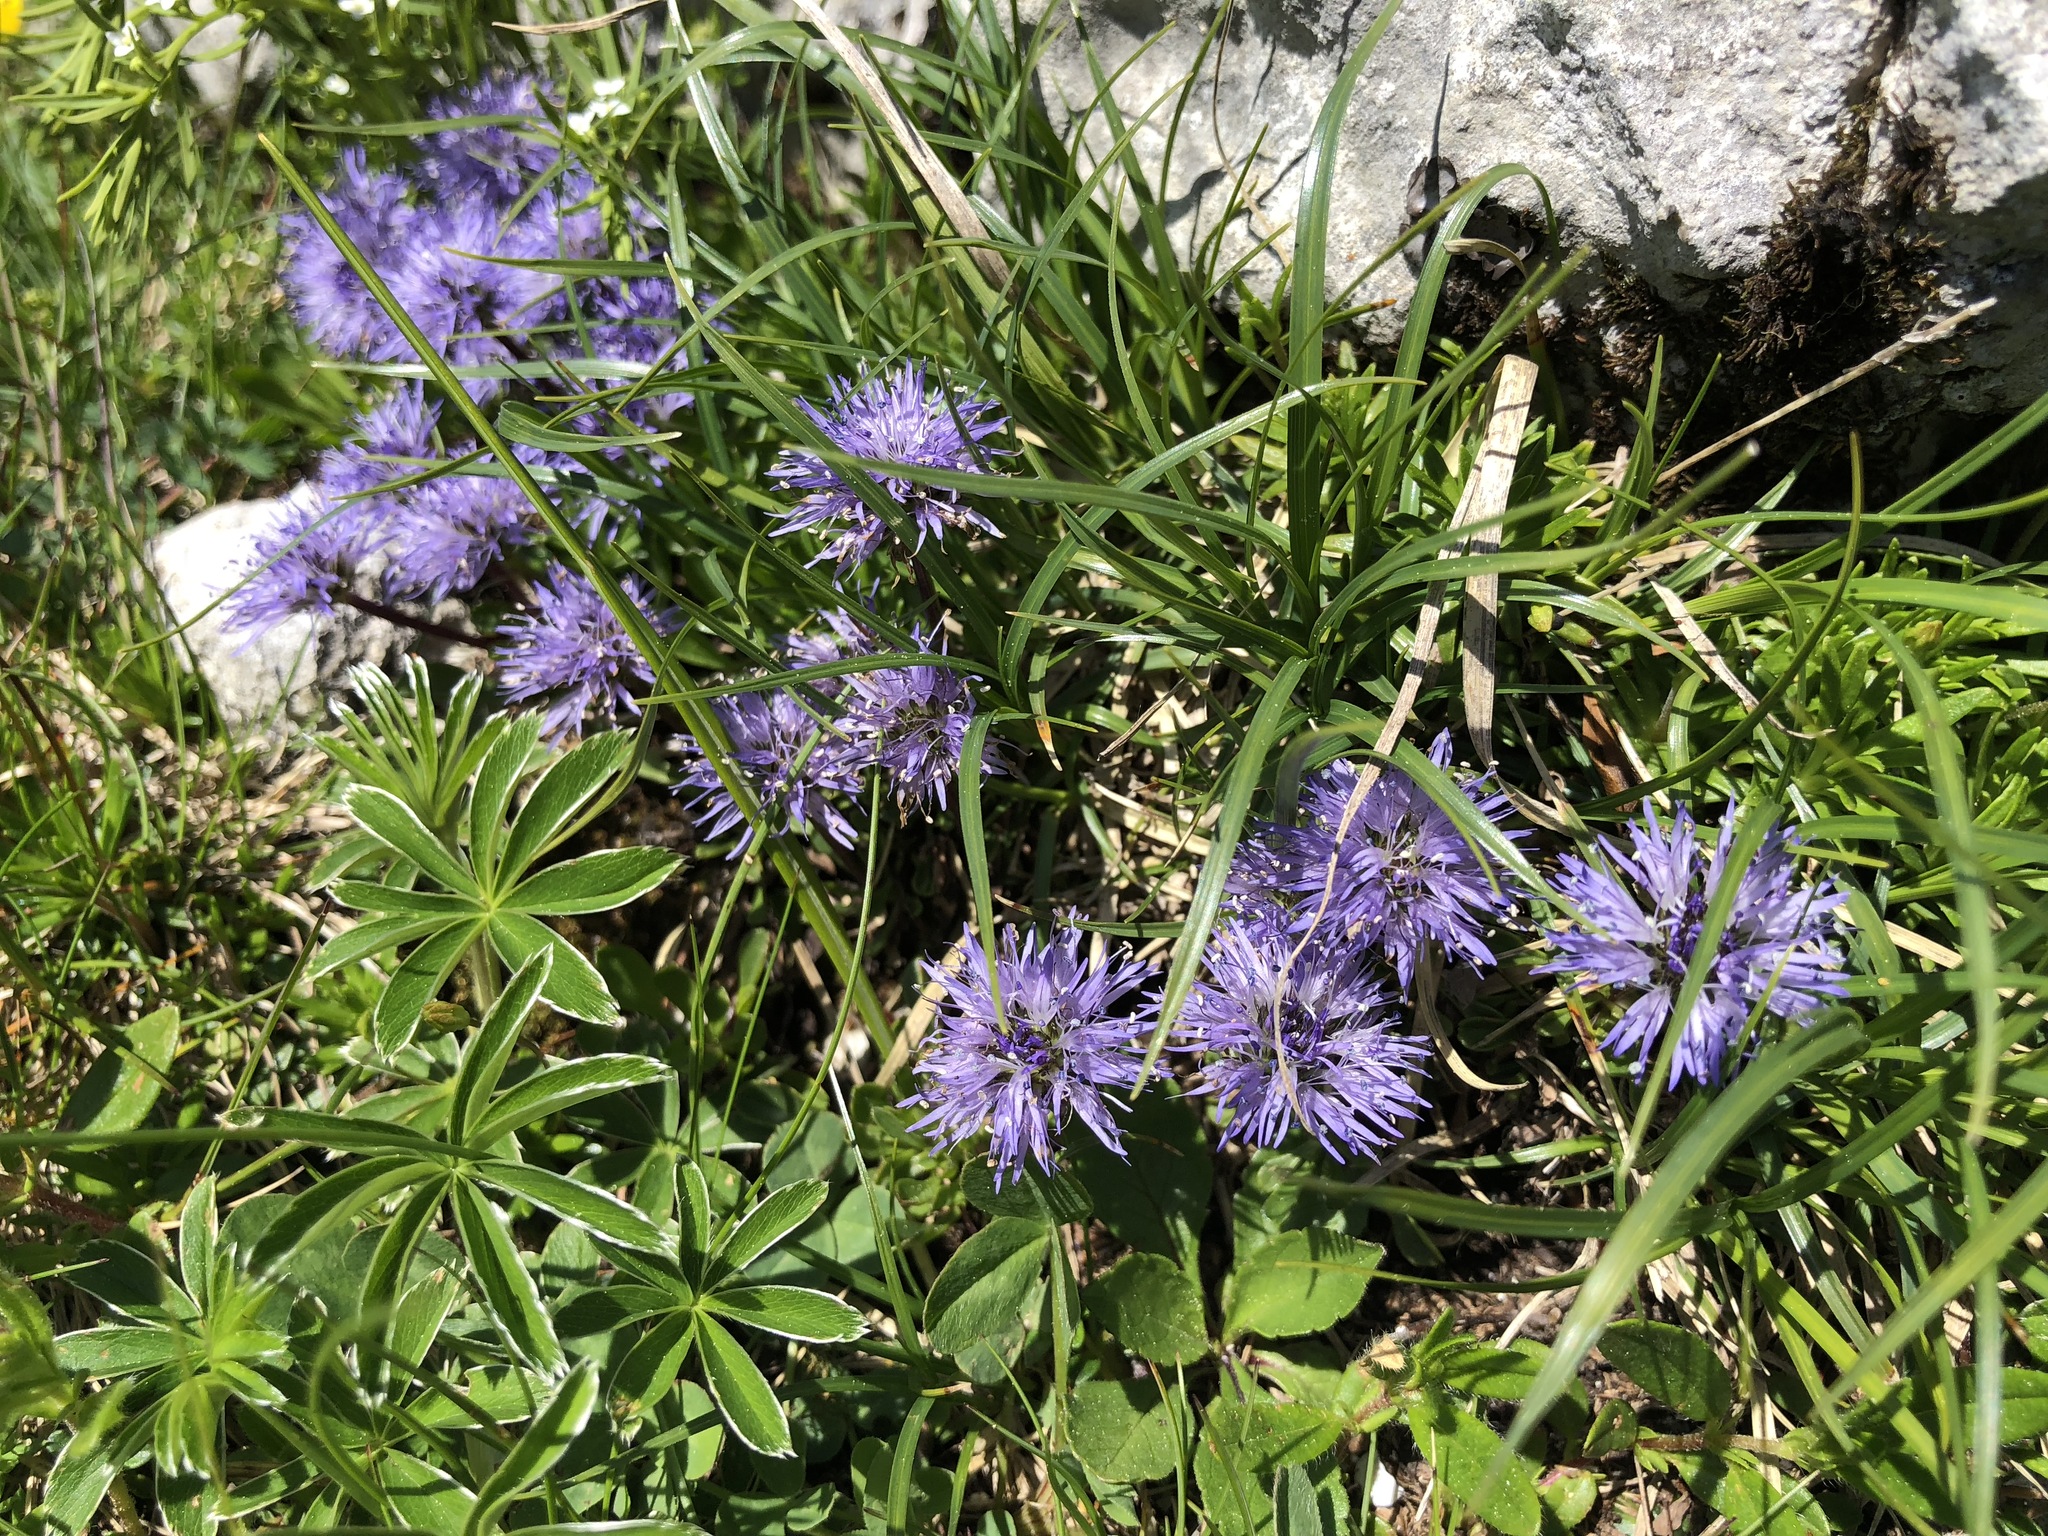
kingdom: Plantae
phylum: Tracheophyta
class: Magnoliopsida
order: Lamiales
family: Plantaginaceae
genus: Globularia
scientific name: Globularia cordifolia
